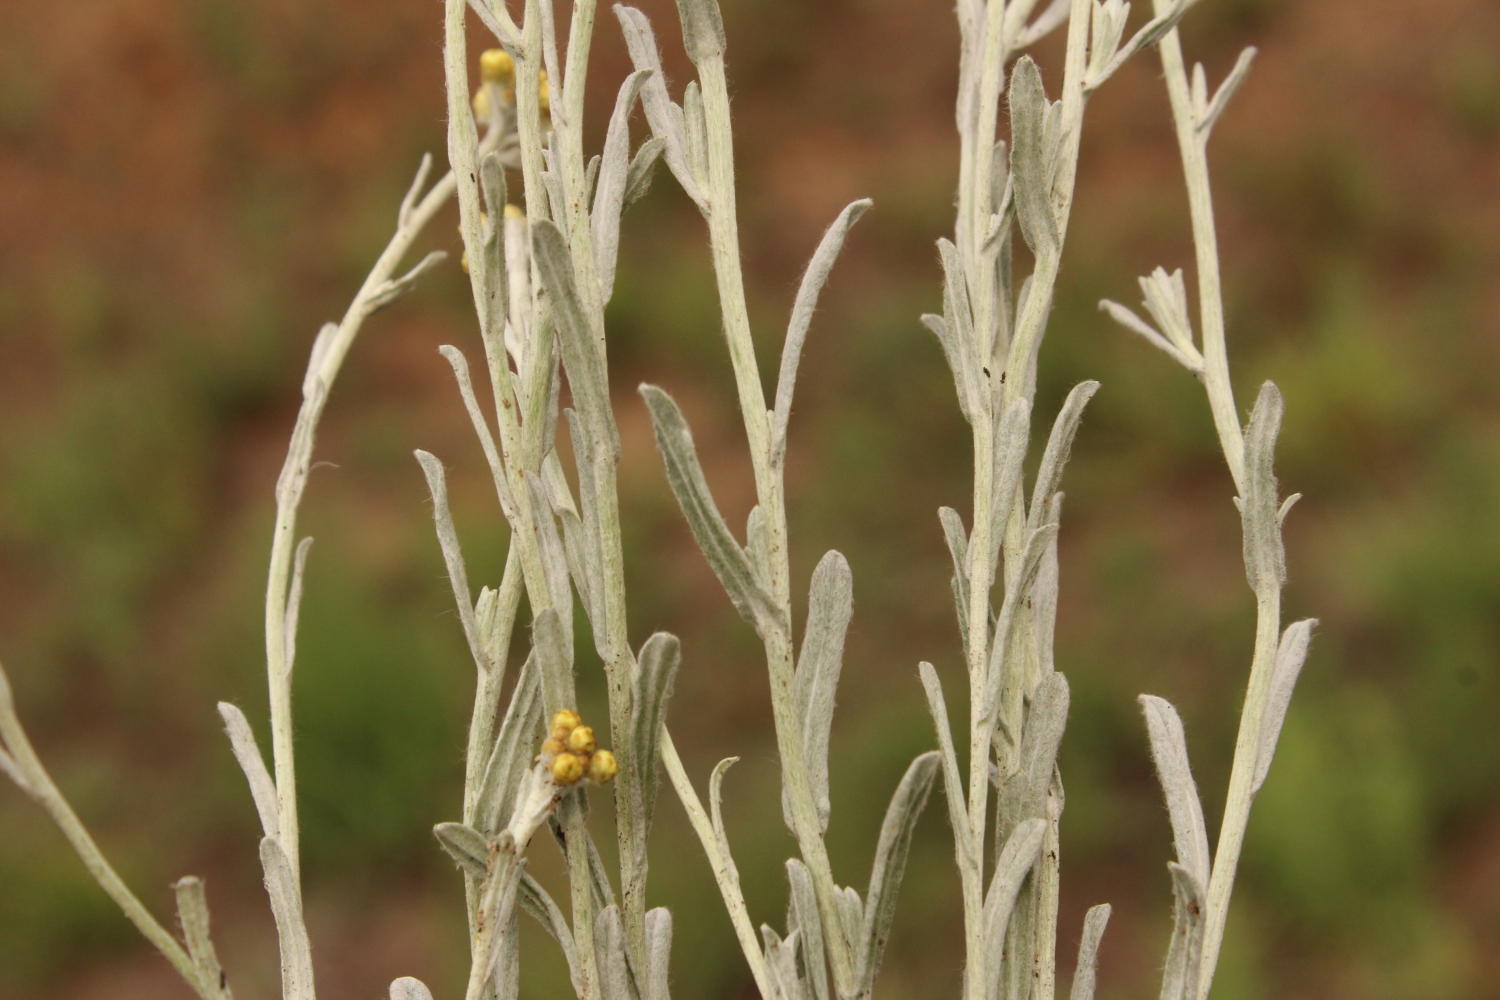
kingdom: Plantae
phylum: Tracheophyta
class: Magnoliopsida
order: Asterales
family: Asteraceae
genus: Helichrysum
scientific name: Helichrysum aureonitens
